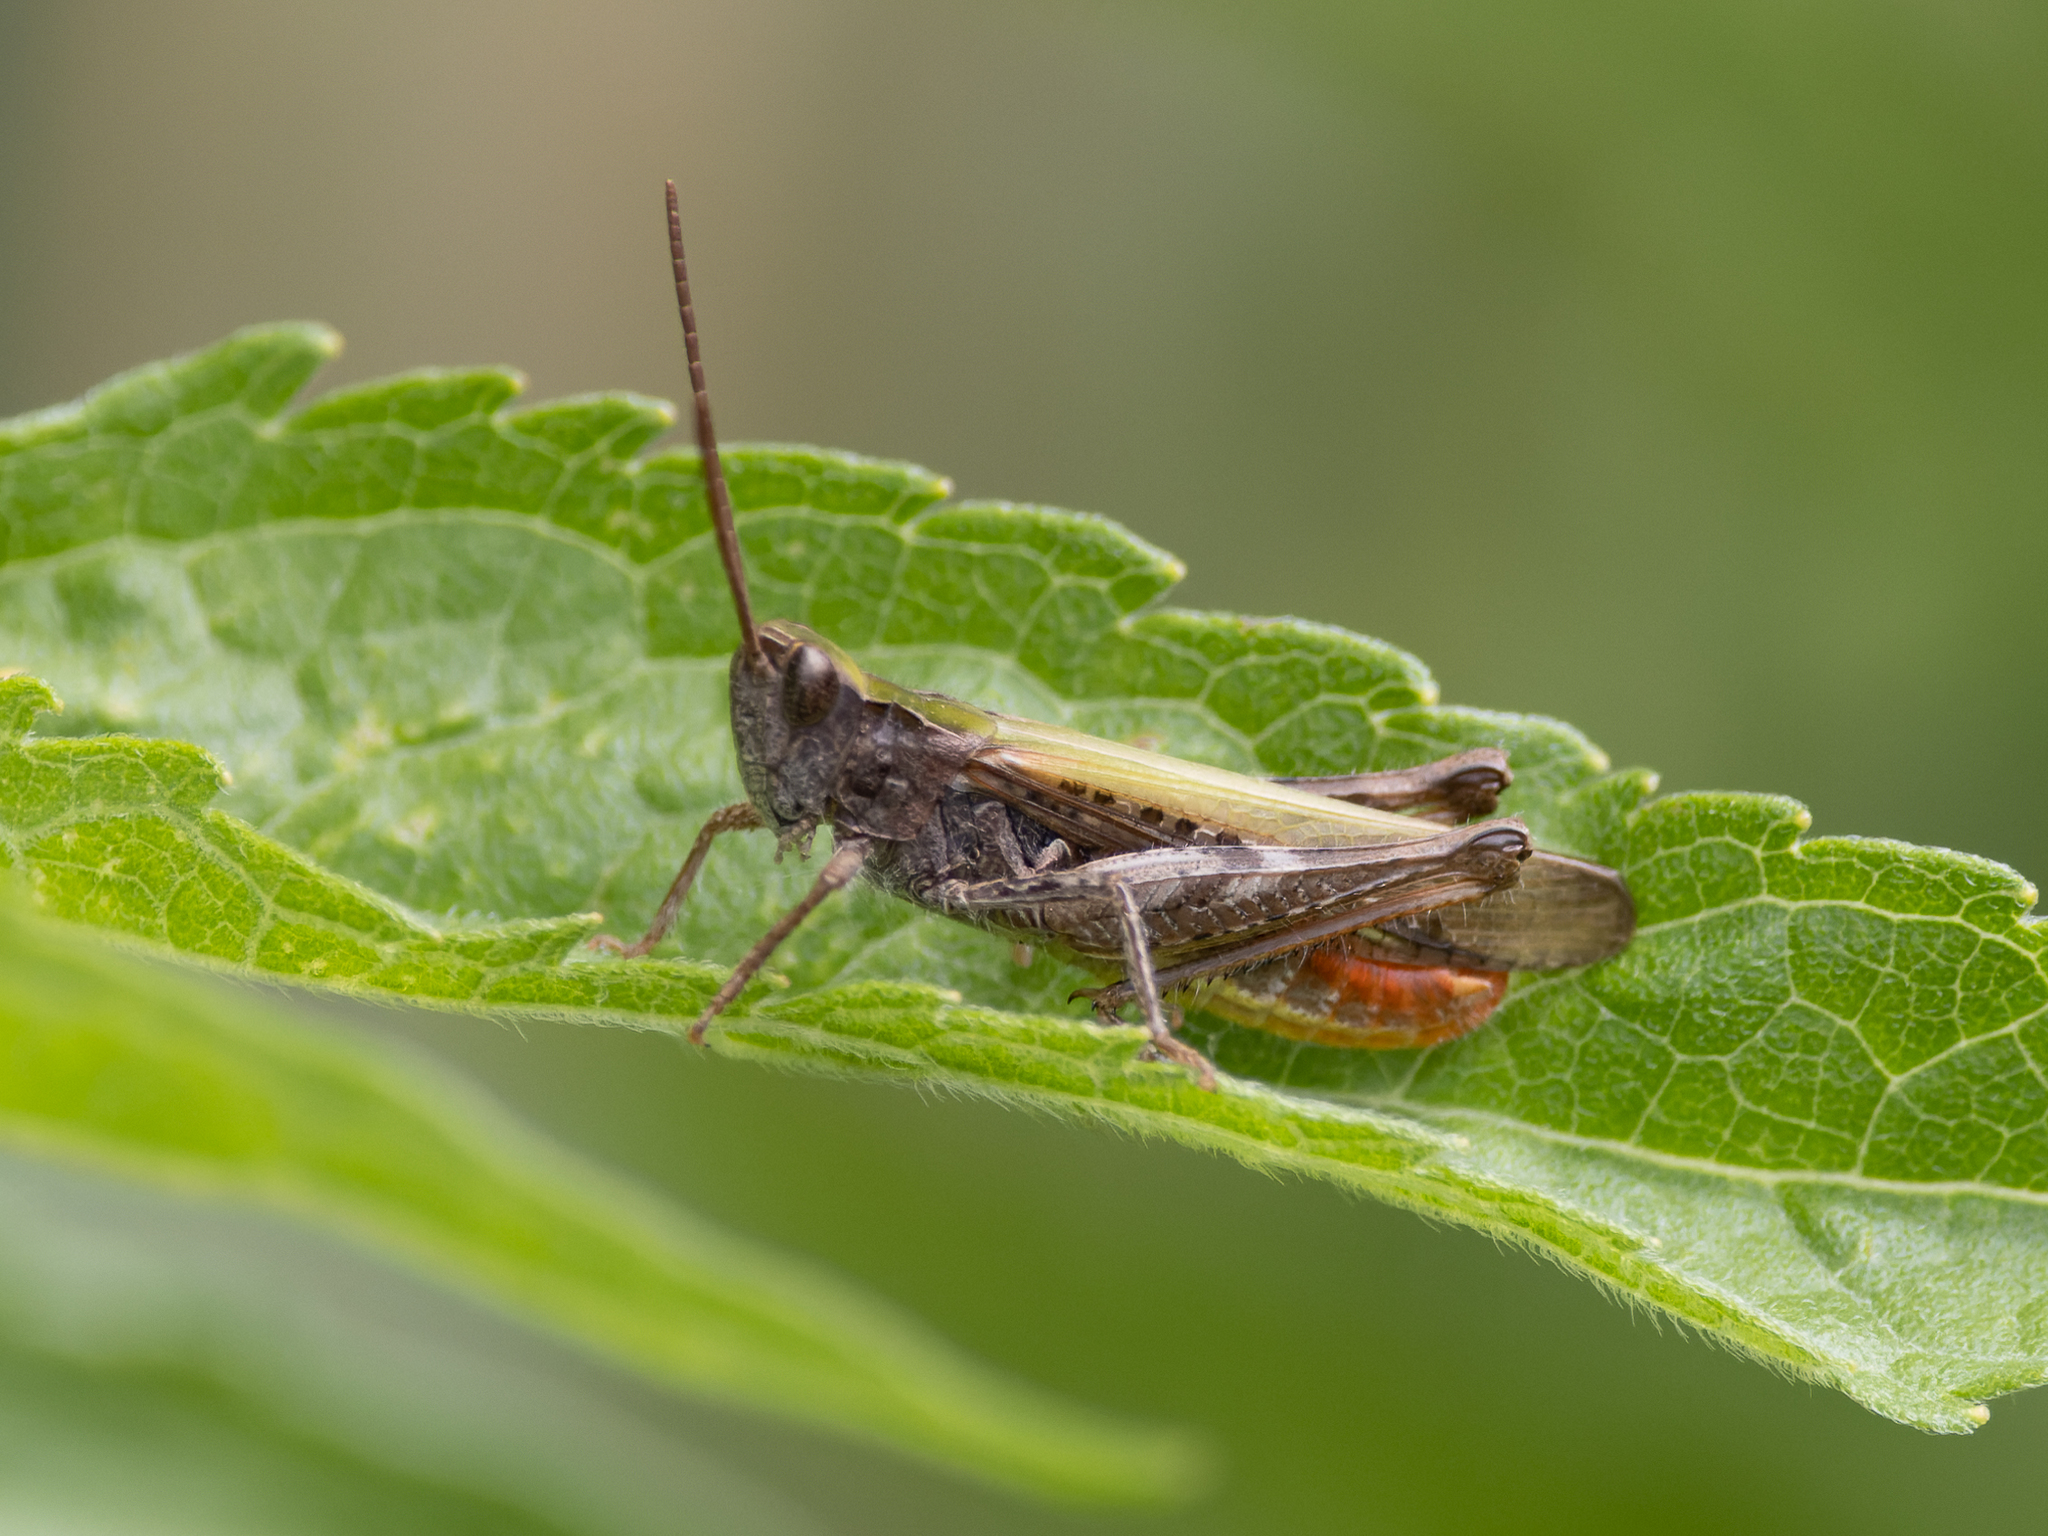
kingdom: Animalia
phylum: Arthropoda
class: Insecta
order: Orthoptera
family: Acrididae
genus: Chorthippus
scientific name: Chorthippus brunneus
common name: Field grasshopper
